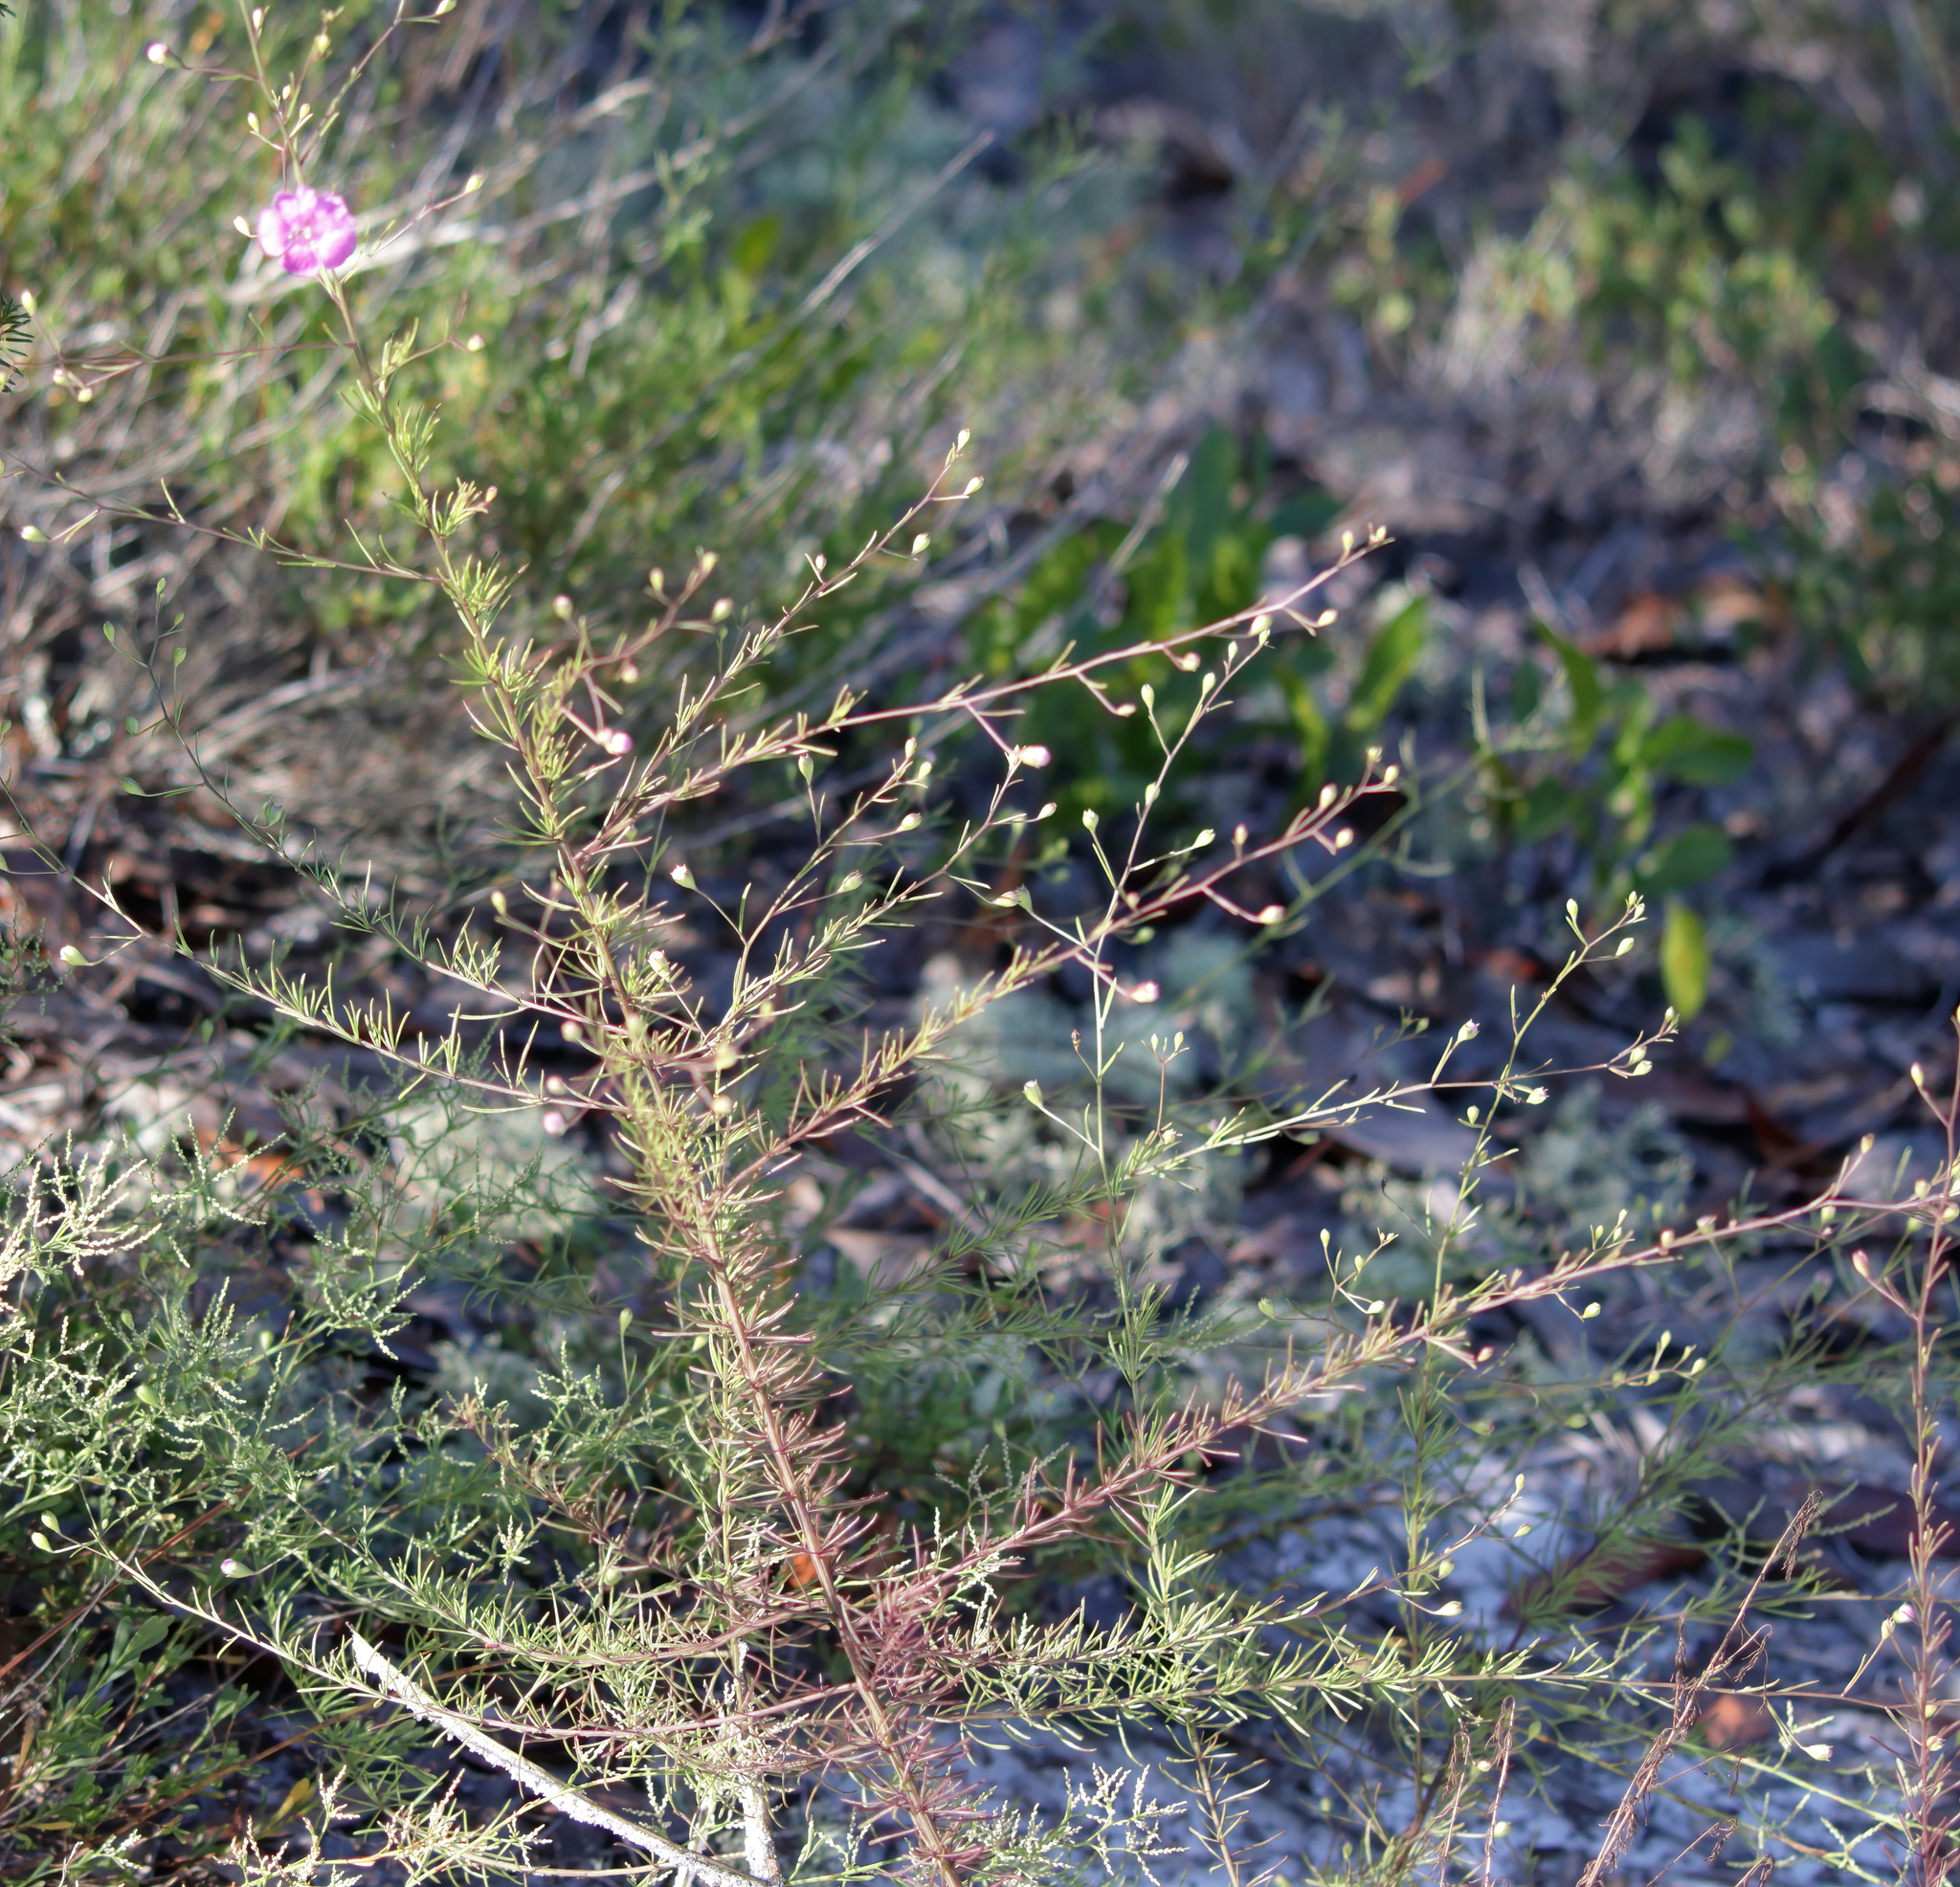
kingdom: Plantae
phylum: Tracheophyta
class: Magnoliopsida
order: Lamiales
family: Orobanchaceae
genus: Agalinis
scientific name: Agalinis fasciculata
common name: Beach false foxglove
